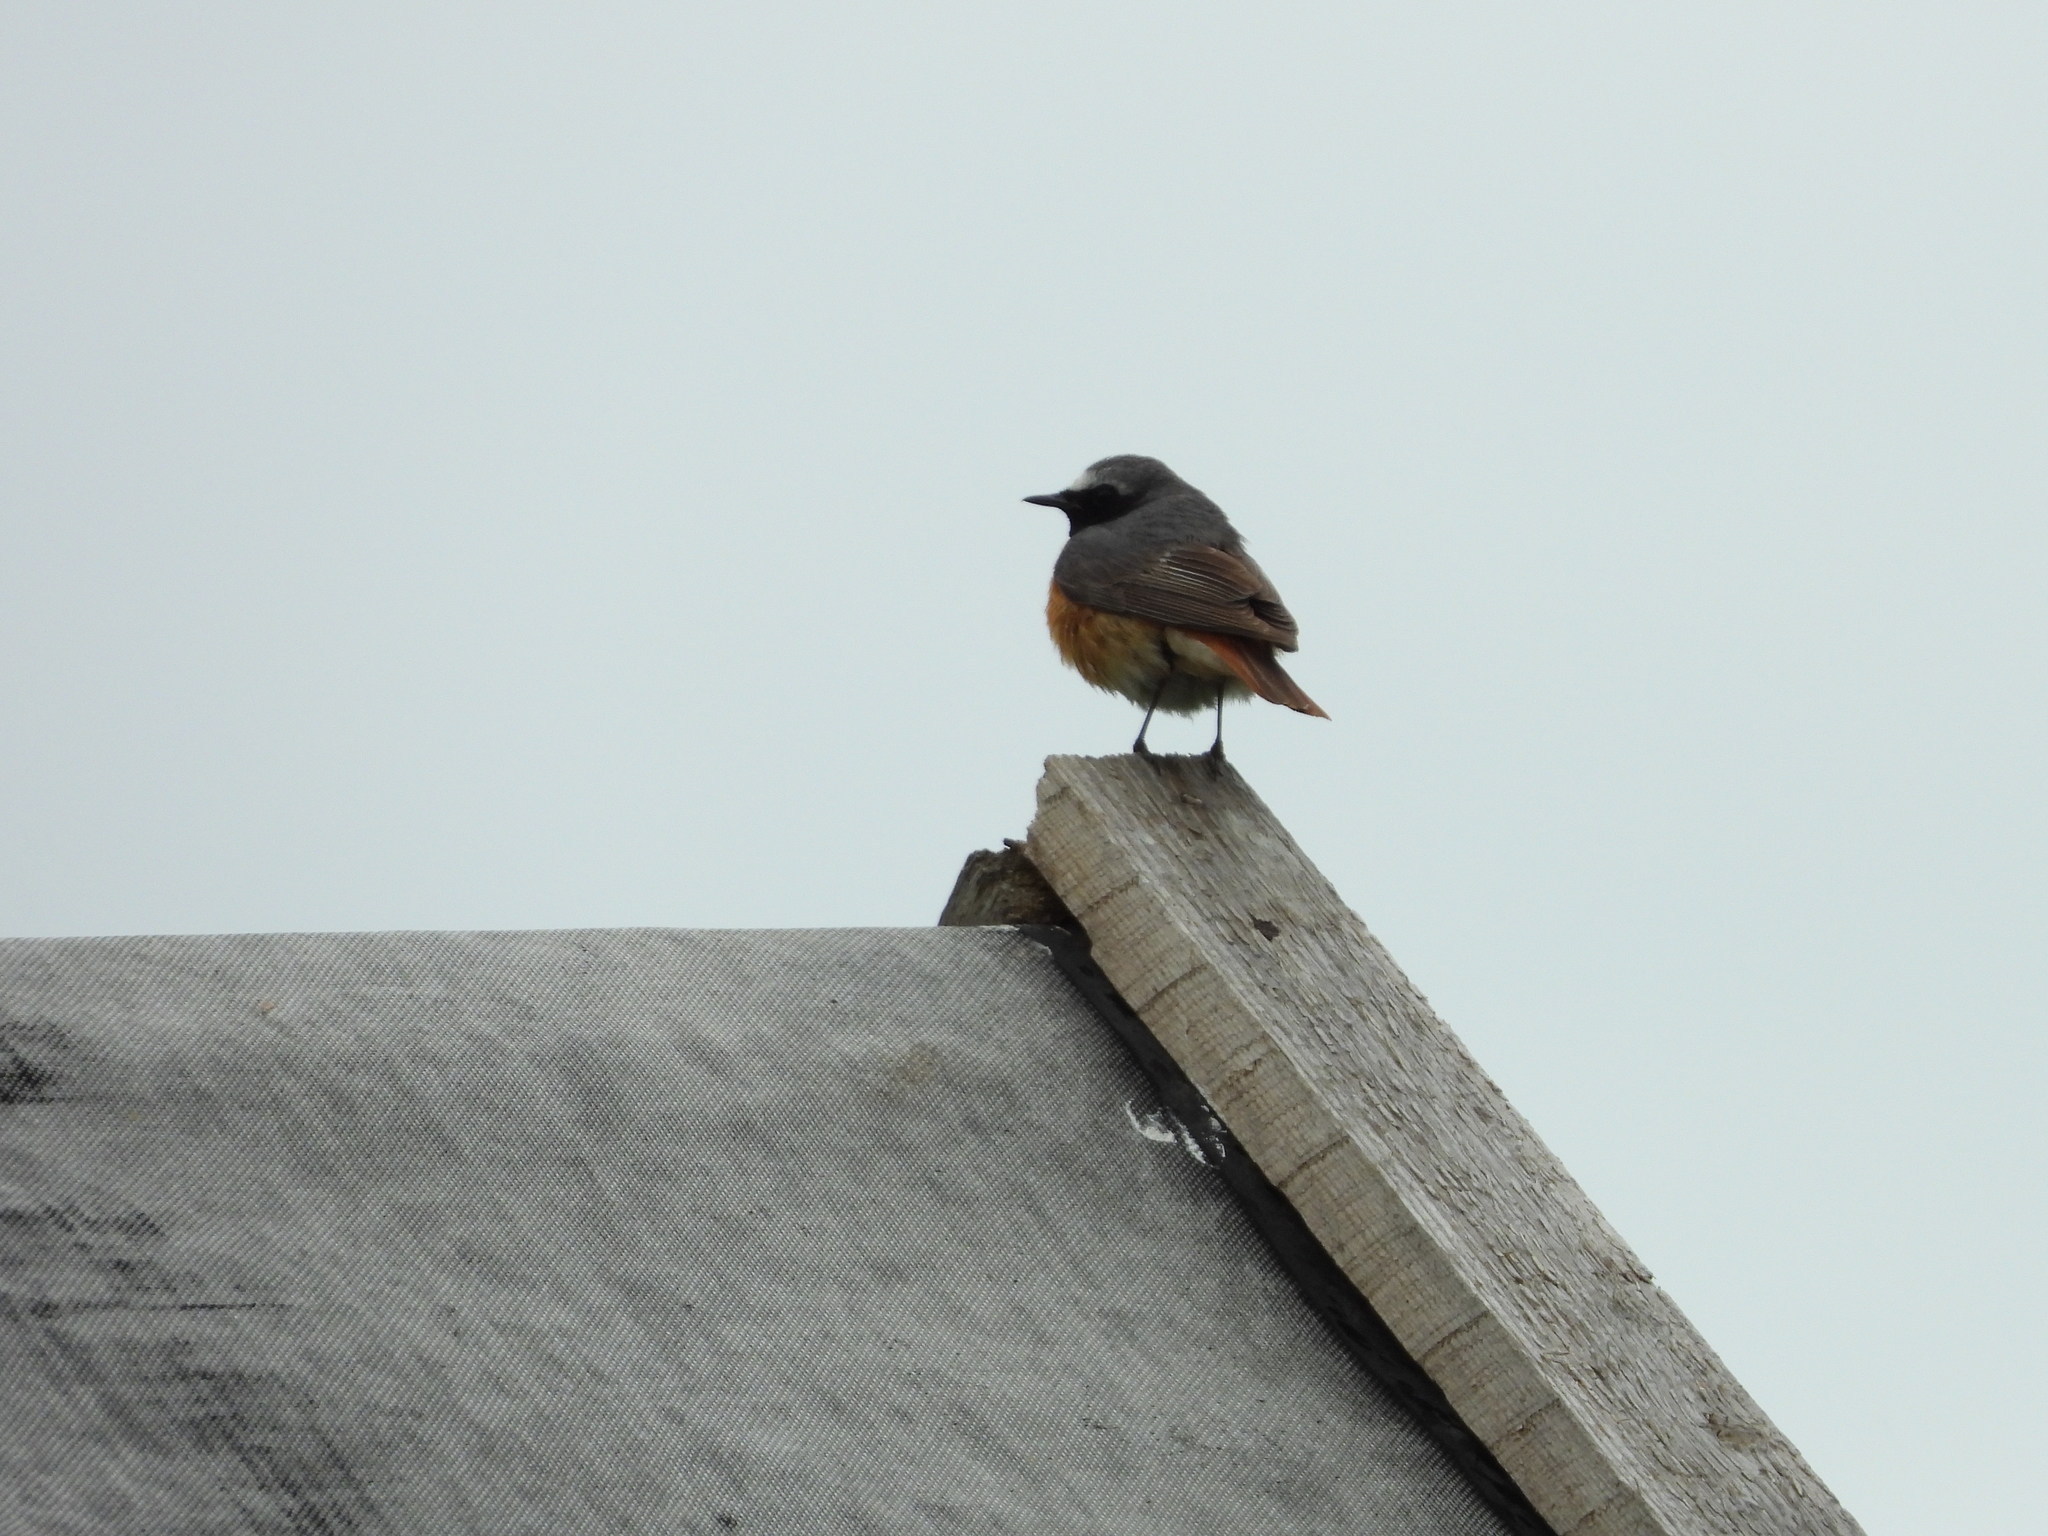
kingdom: Animalia
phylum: Chordata
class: Aves
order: Passeriformes
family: Muscicapidae
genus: Phoenicurus
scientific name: Phoenicurus phoenicurus
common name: Common redstart
